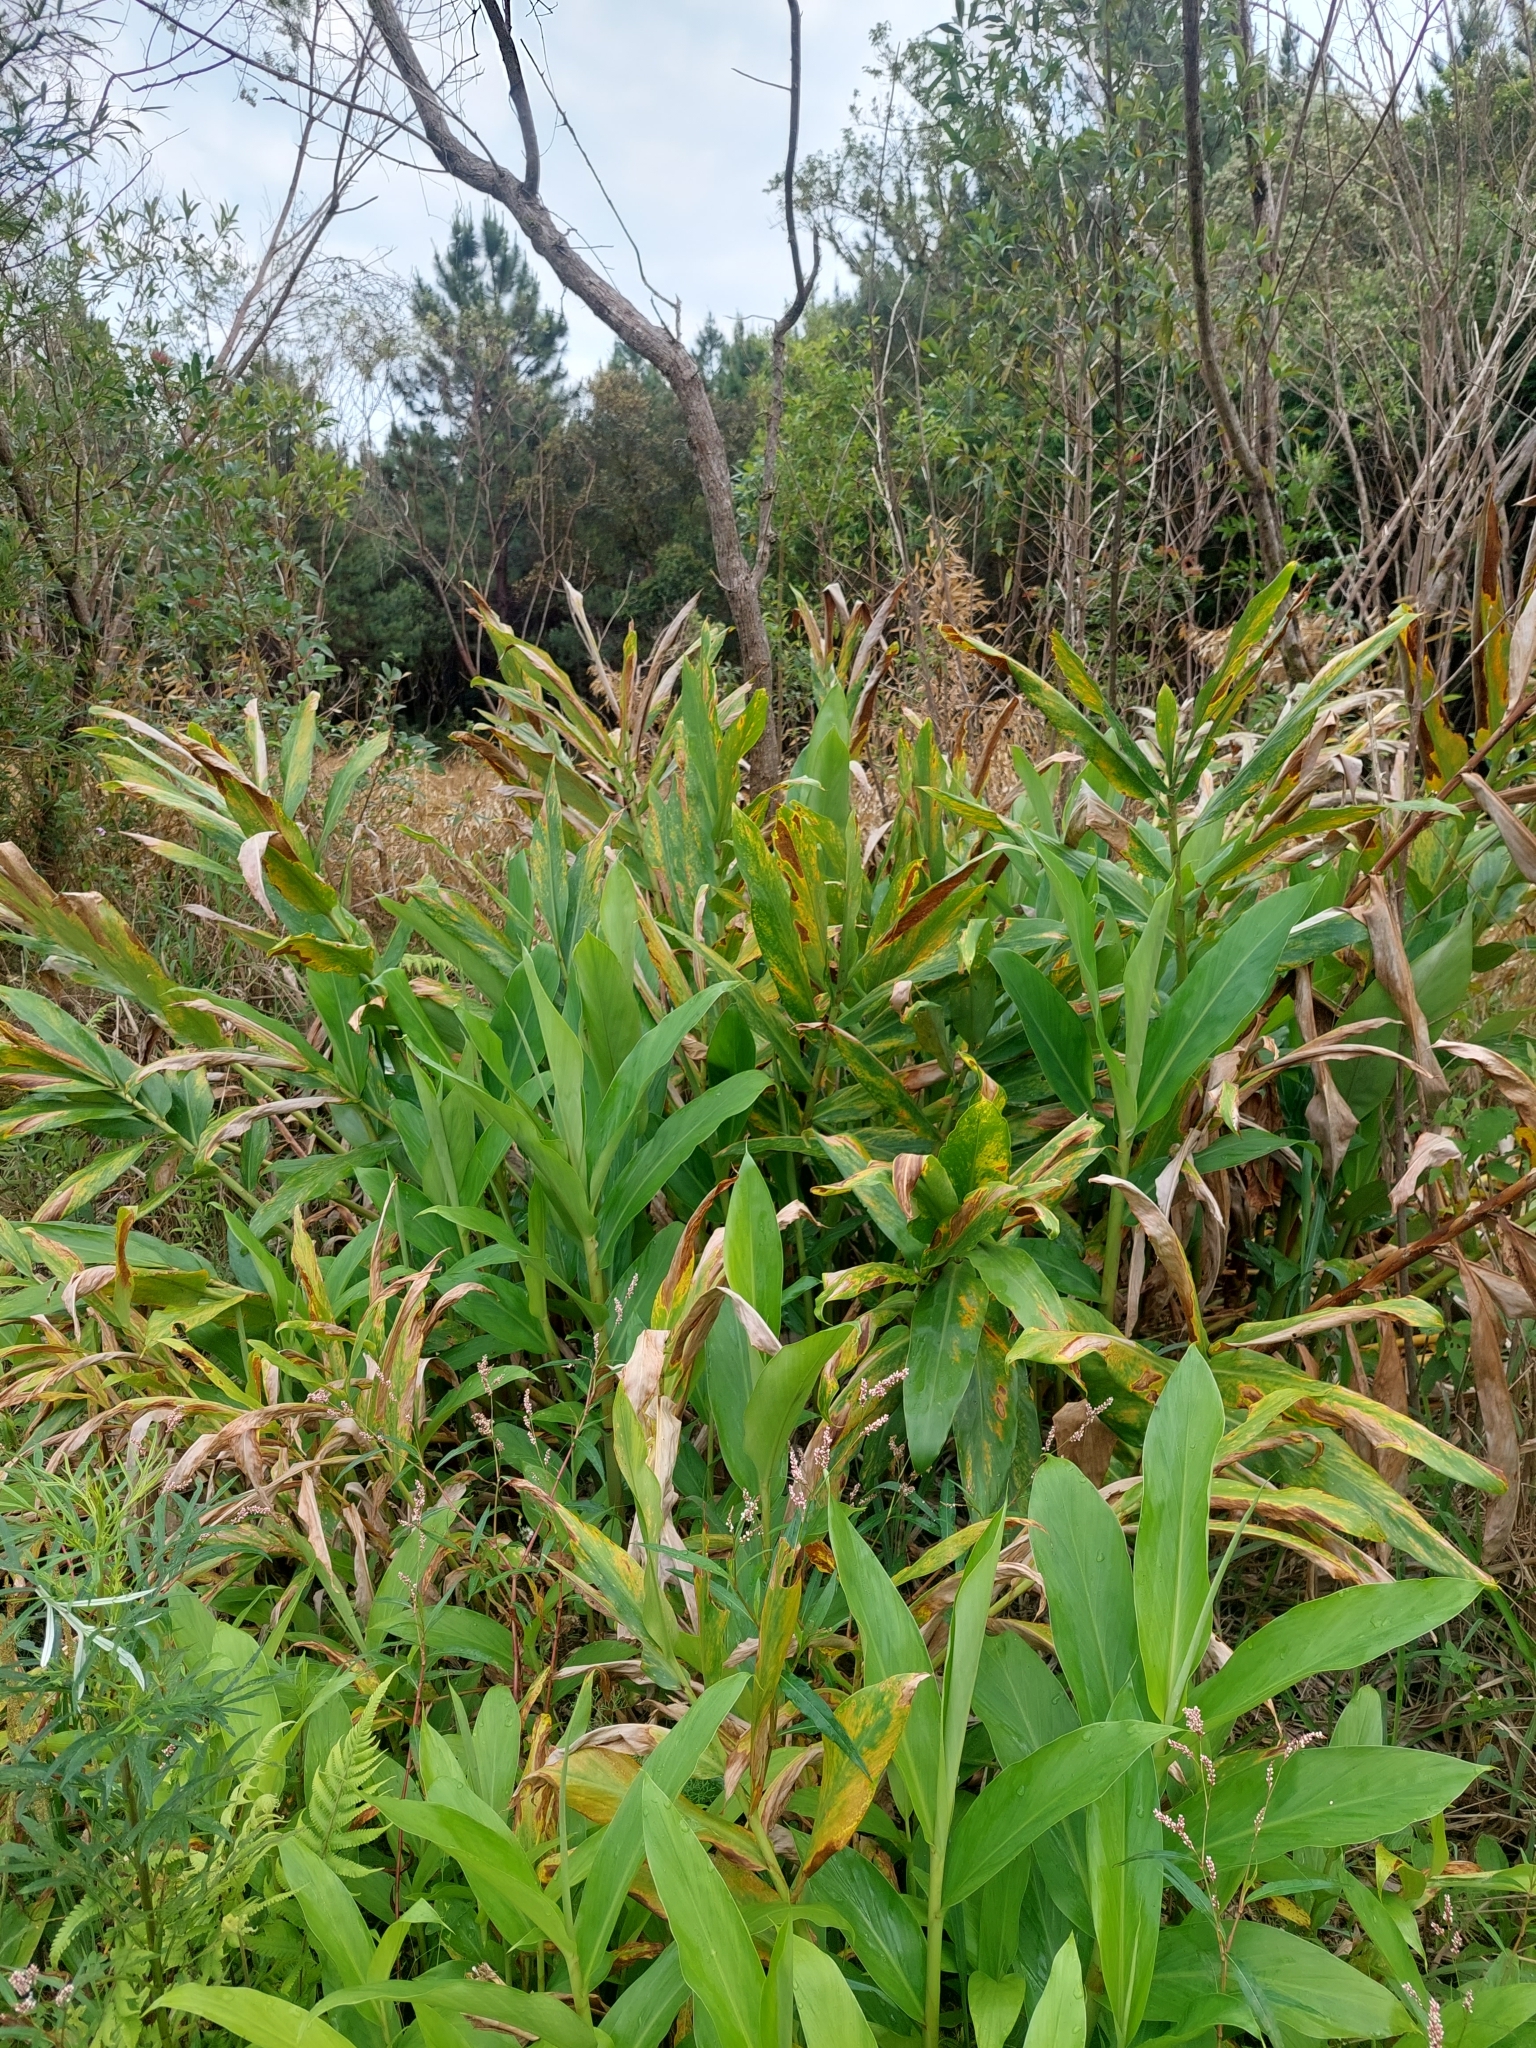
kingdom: Plantae
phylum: Tracheophyta
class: Liliopsida
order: Zingiberales
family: Zingiberaceae
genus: Hedychium
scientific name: Hedychium coronarium
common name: White garland-lily
